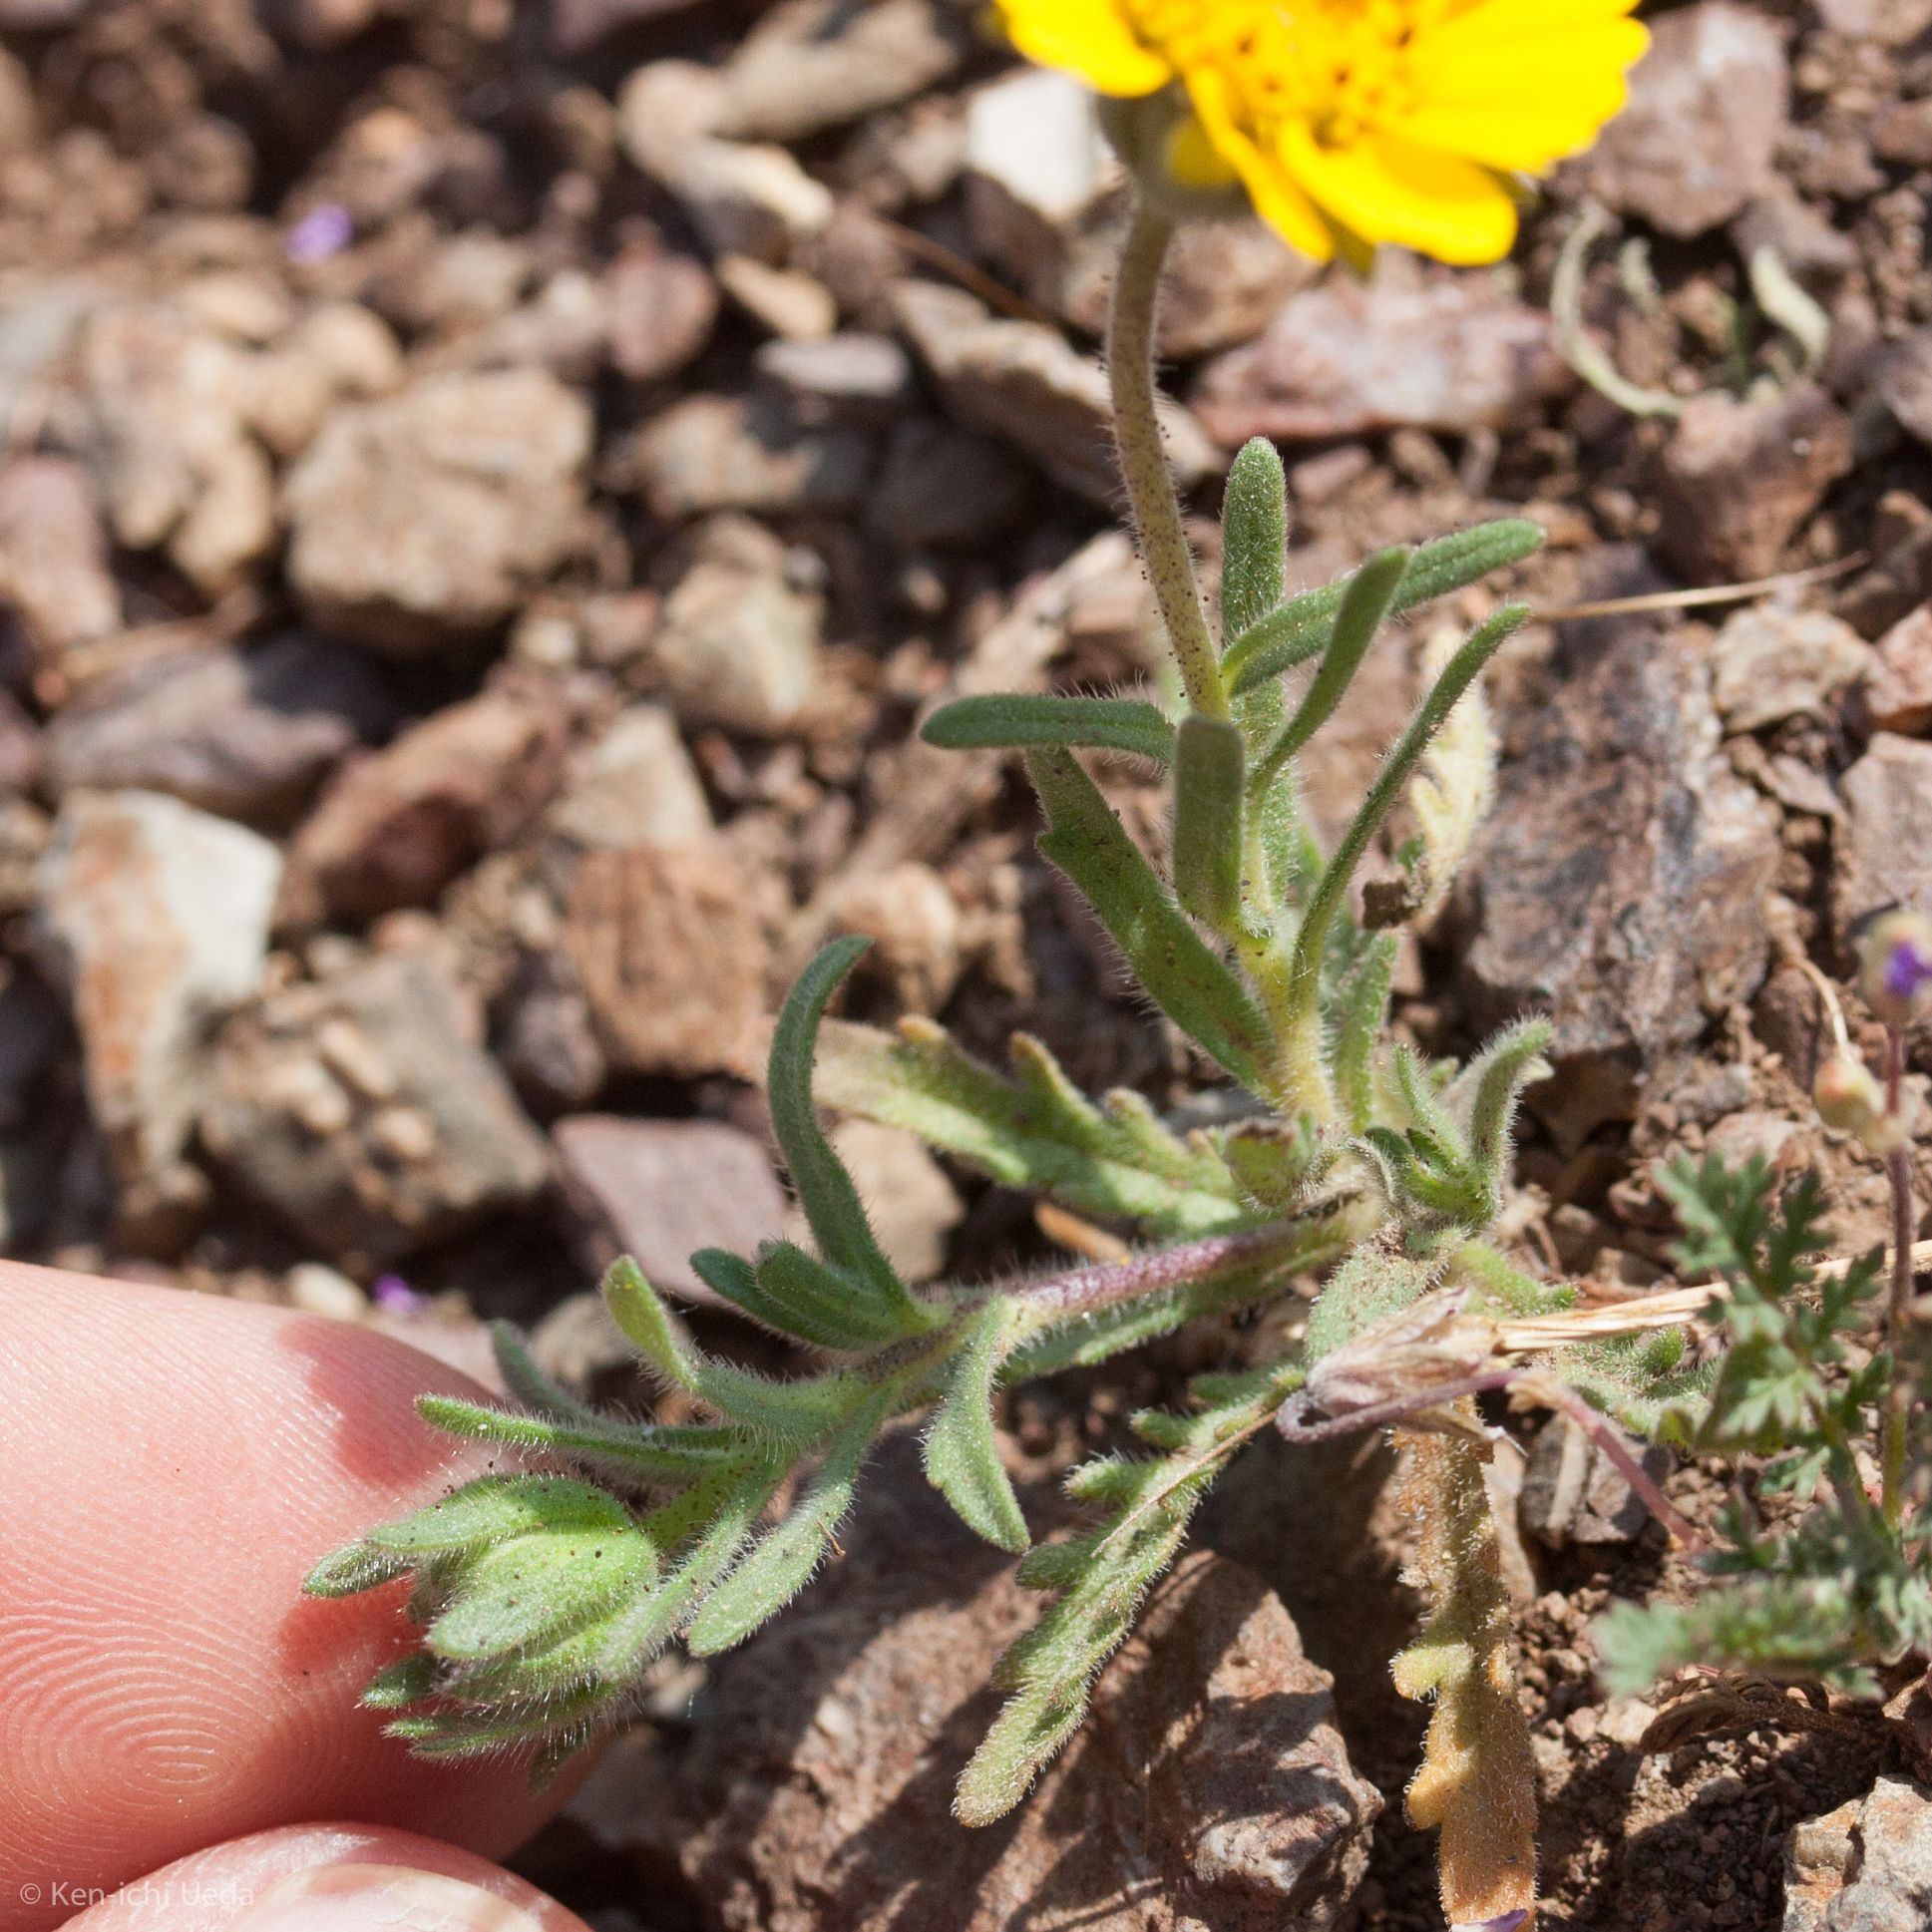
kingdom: Plantae
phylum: Tracheophyta
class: Magnoliopsida
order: Asterales
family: Asteraceae
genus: Layia
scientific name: Layia platyglossa
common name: Tidy-tips
